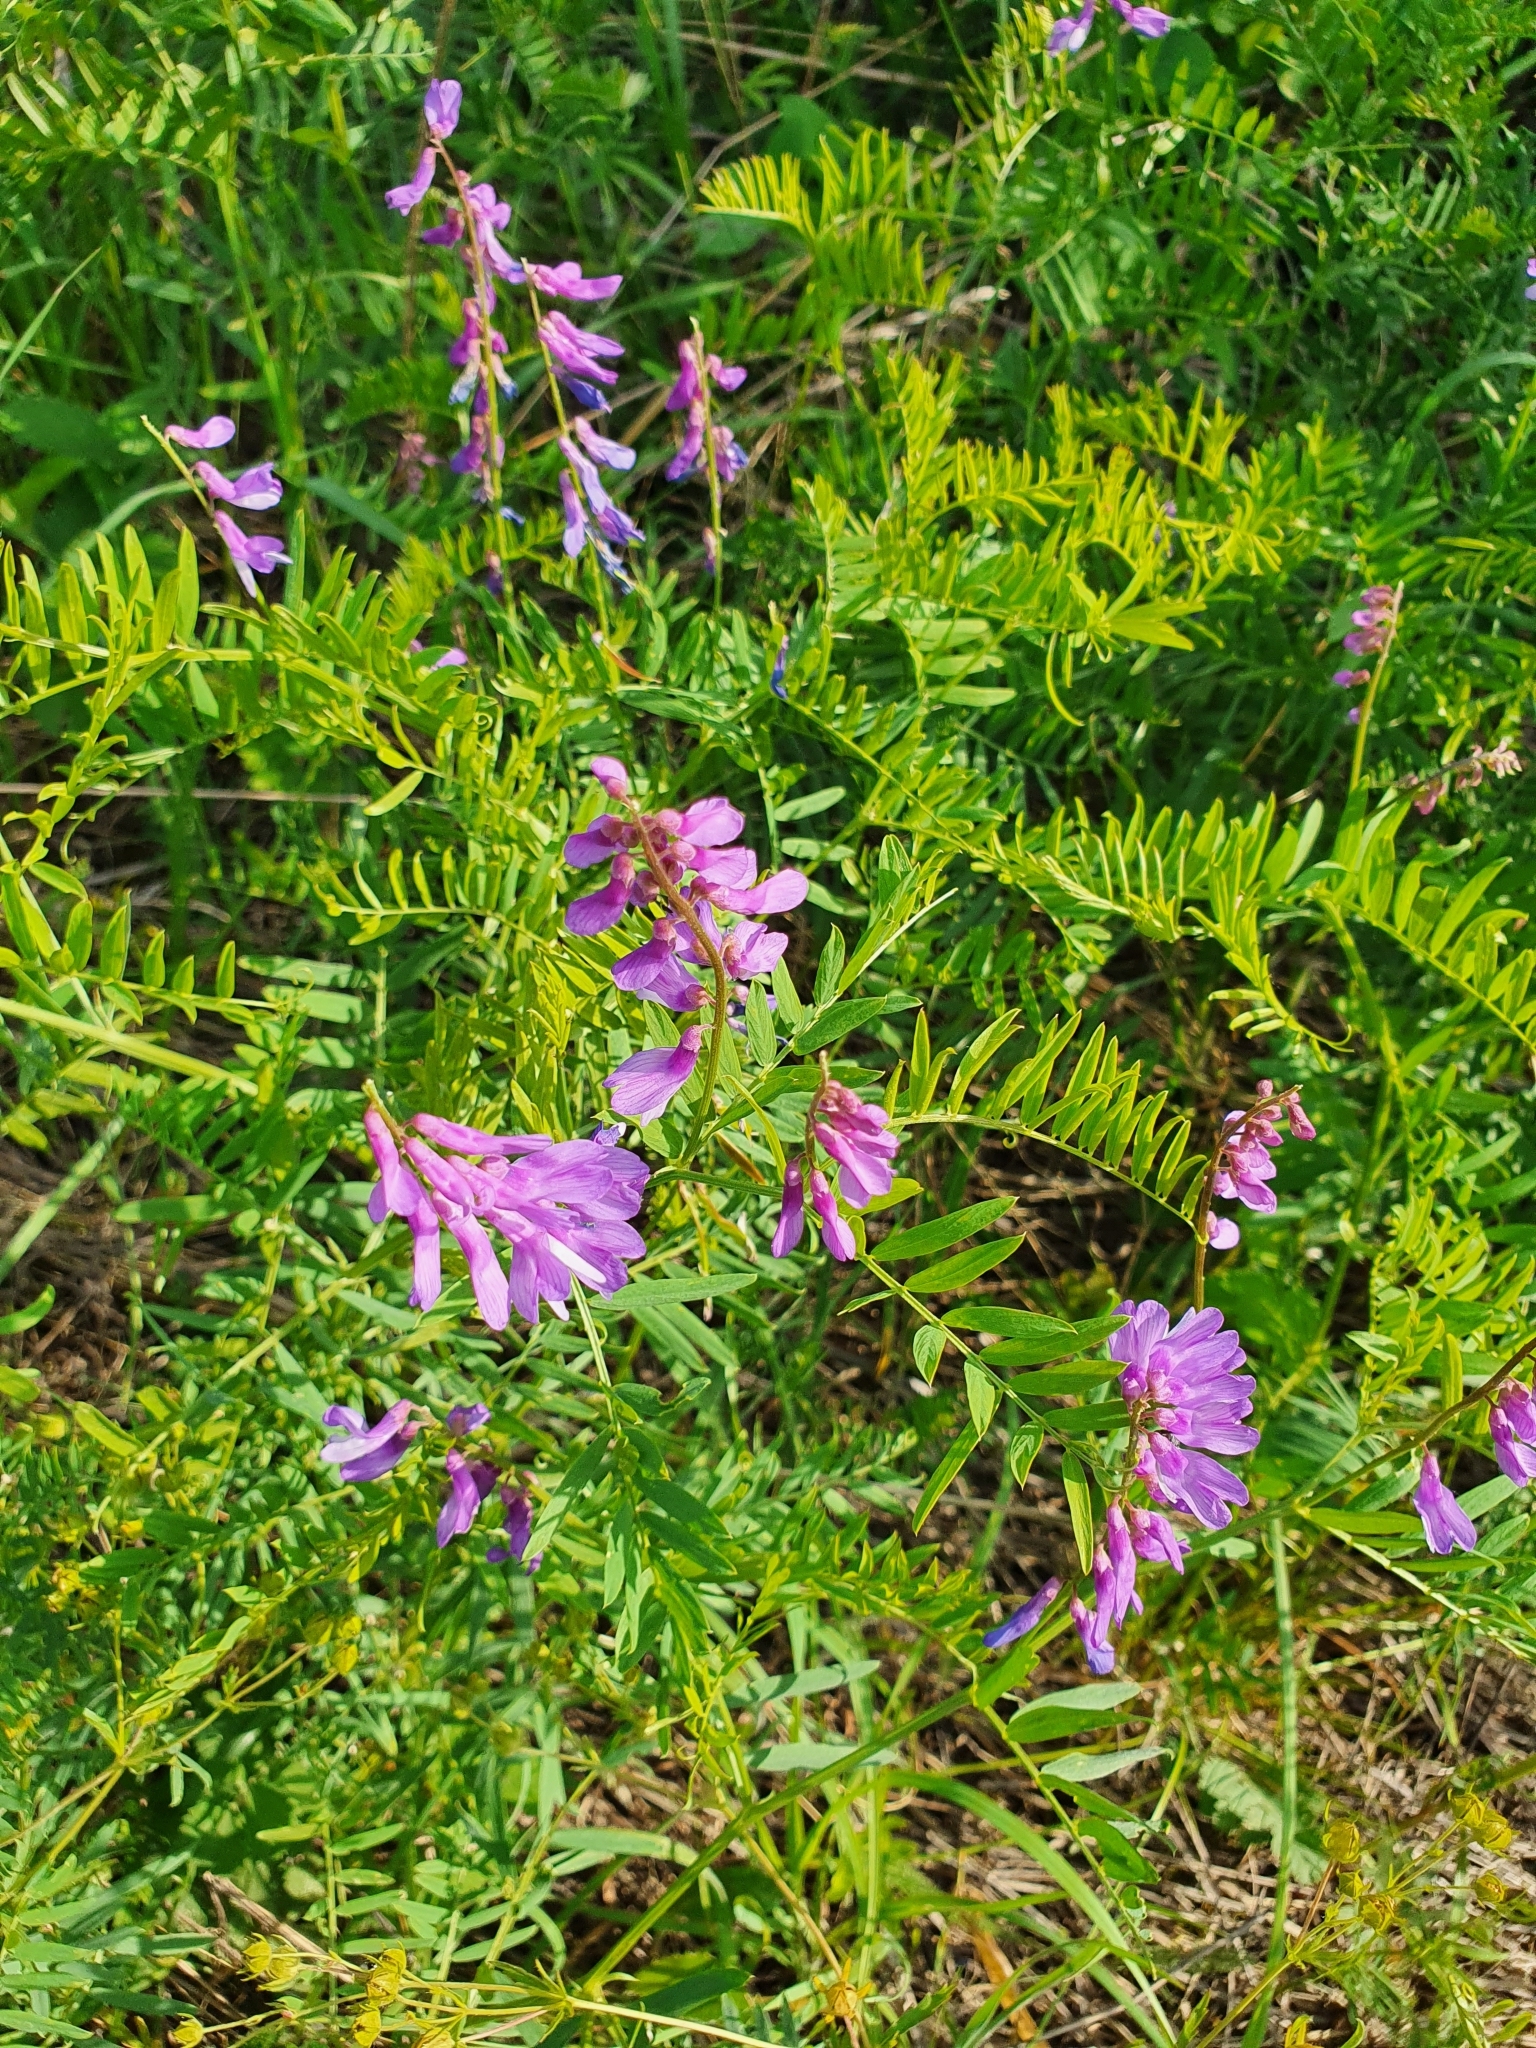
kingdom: Plantae
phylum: Tracheophyta
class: Magnoliopsida
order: Fabales
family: Fabaceae
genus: Vicia
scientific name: Vicia tenuifolia
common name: Fine-leaved vetch
